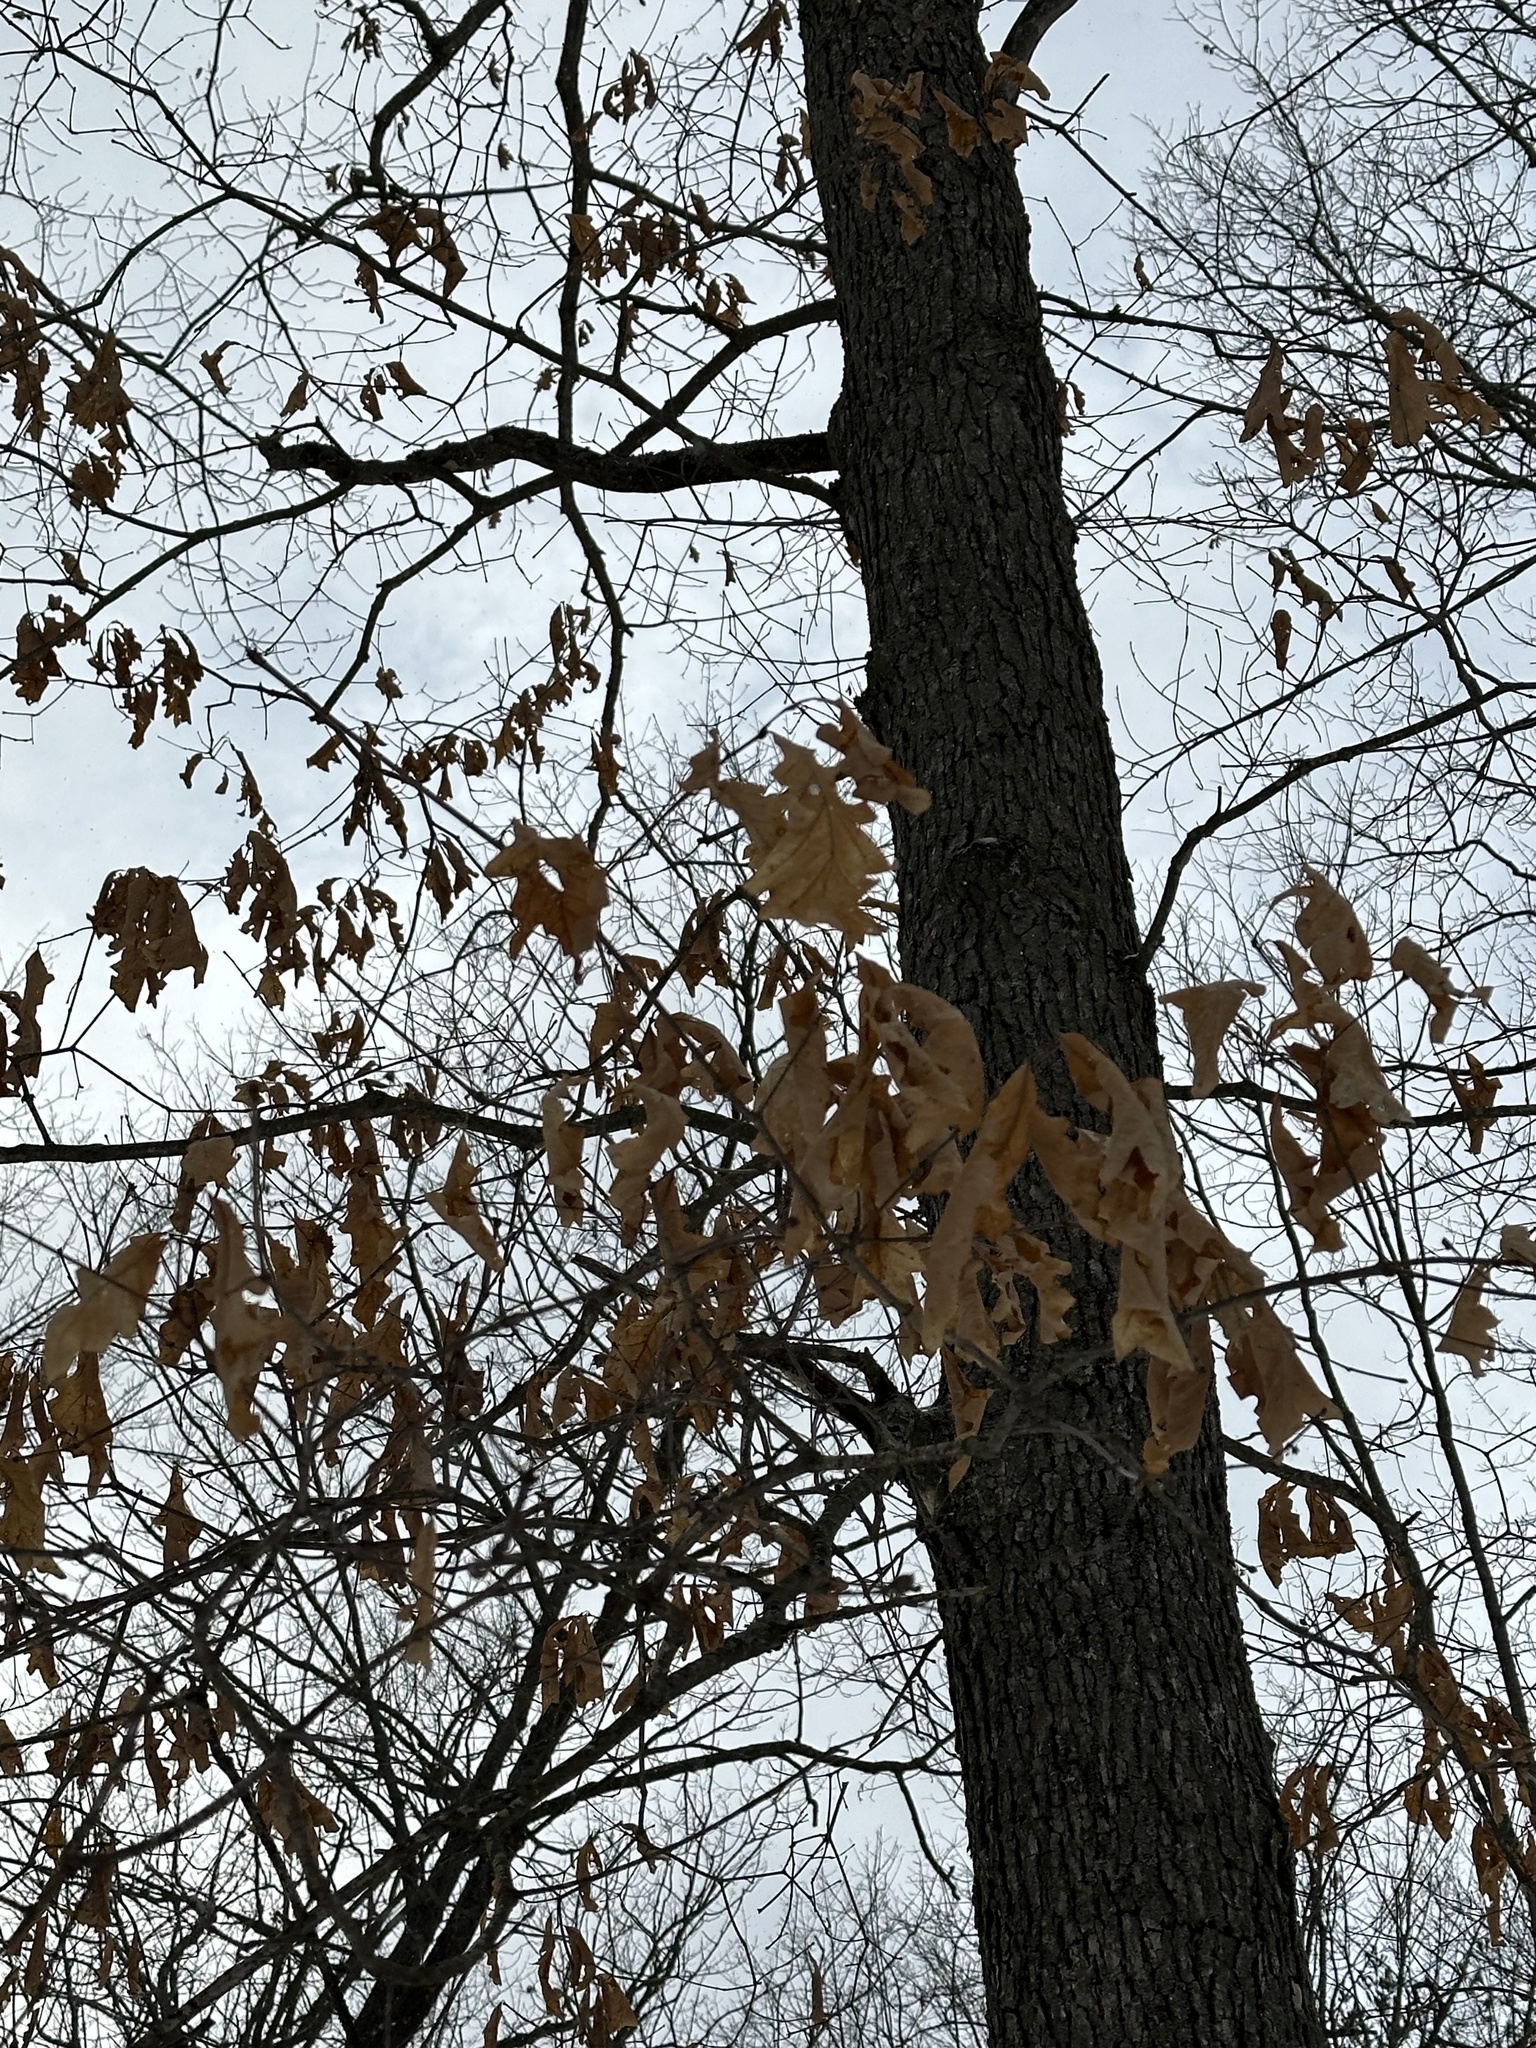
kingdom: Plantae
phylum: Tracheophyta
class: Magnoliopsida
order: Fagales
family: Fagaceae
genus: Quercus
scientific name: Quercus alba
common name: White oak
